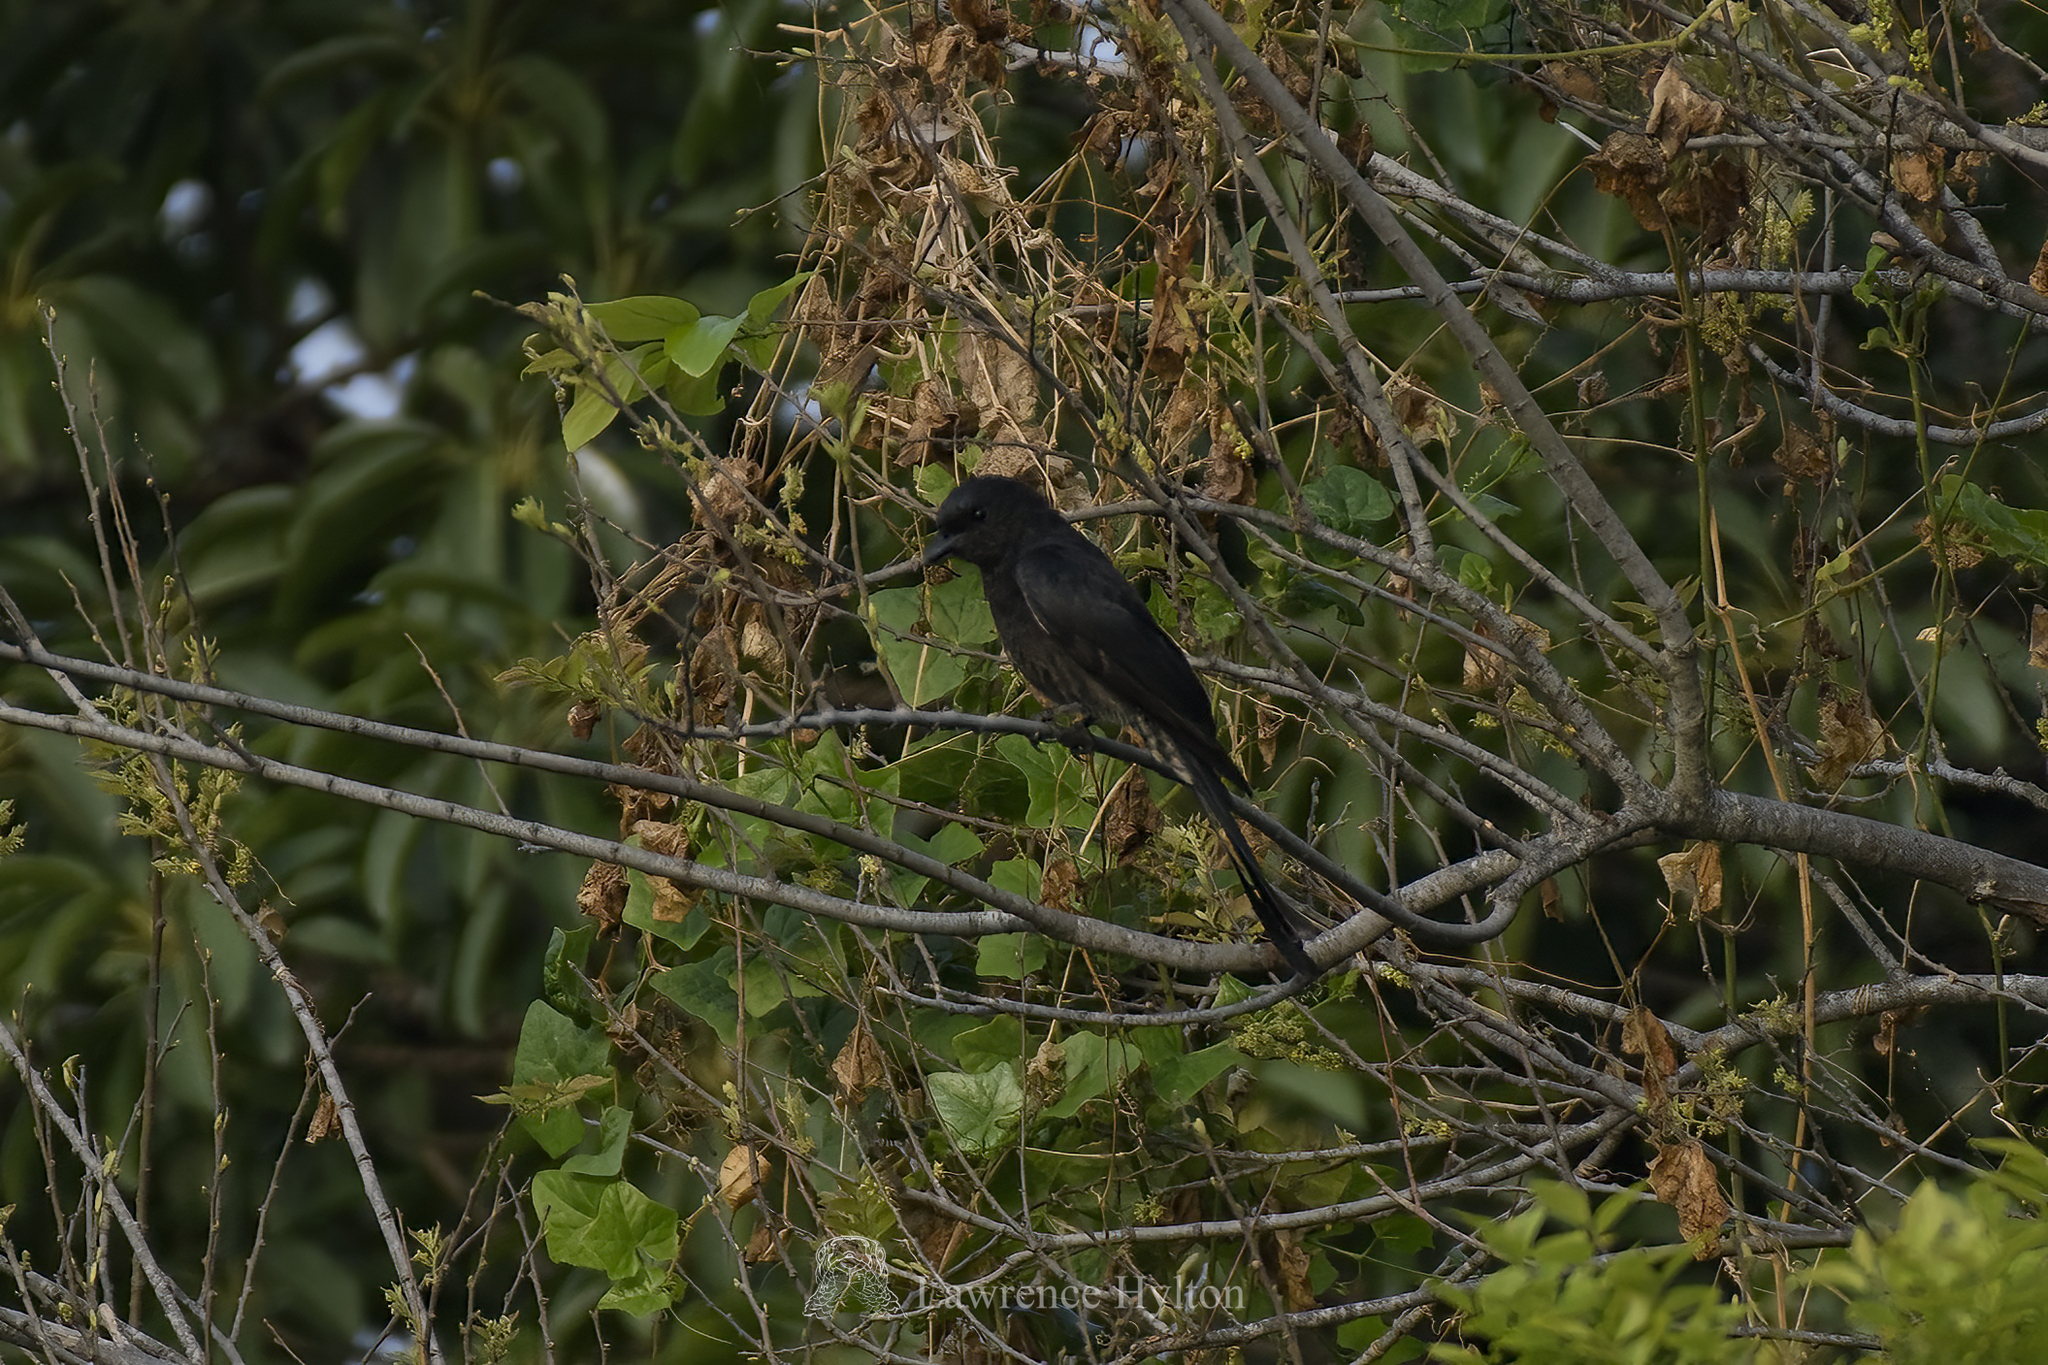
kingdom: Animalia
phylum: Chordata
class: Aves
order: Passeriformes
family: Dicruridae
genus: Dicrurus
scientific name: Dicrurus macrocercus
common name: Black drongo
